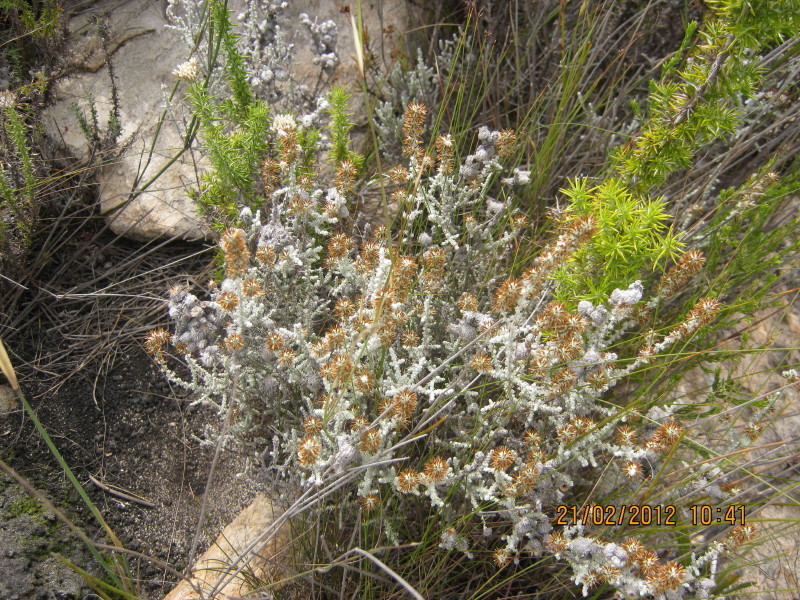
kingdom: Plantae
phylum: Tracheophyta
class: Magnoliopsida
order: Asterales
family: Asteraceae
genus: Seriphium
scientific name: Seriphium plumosum
